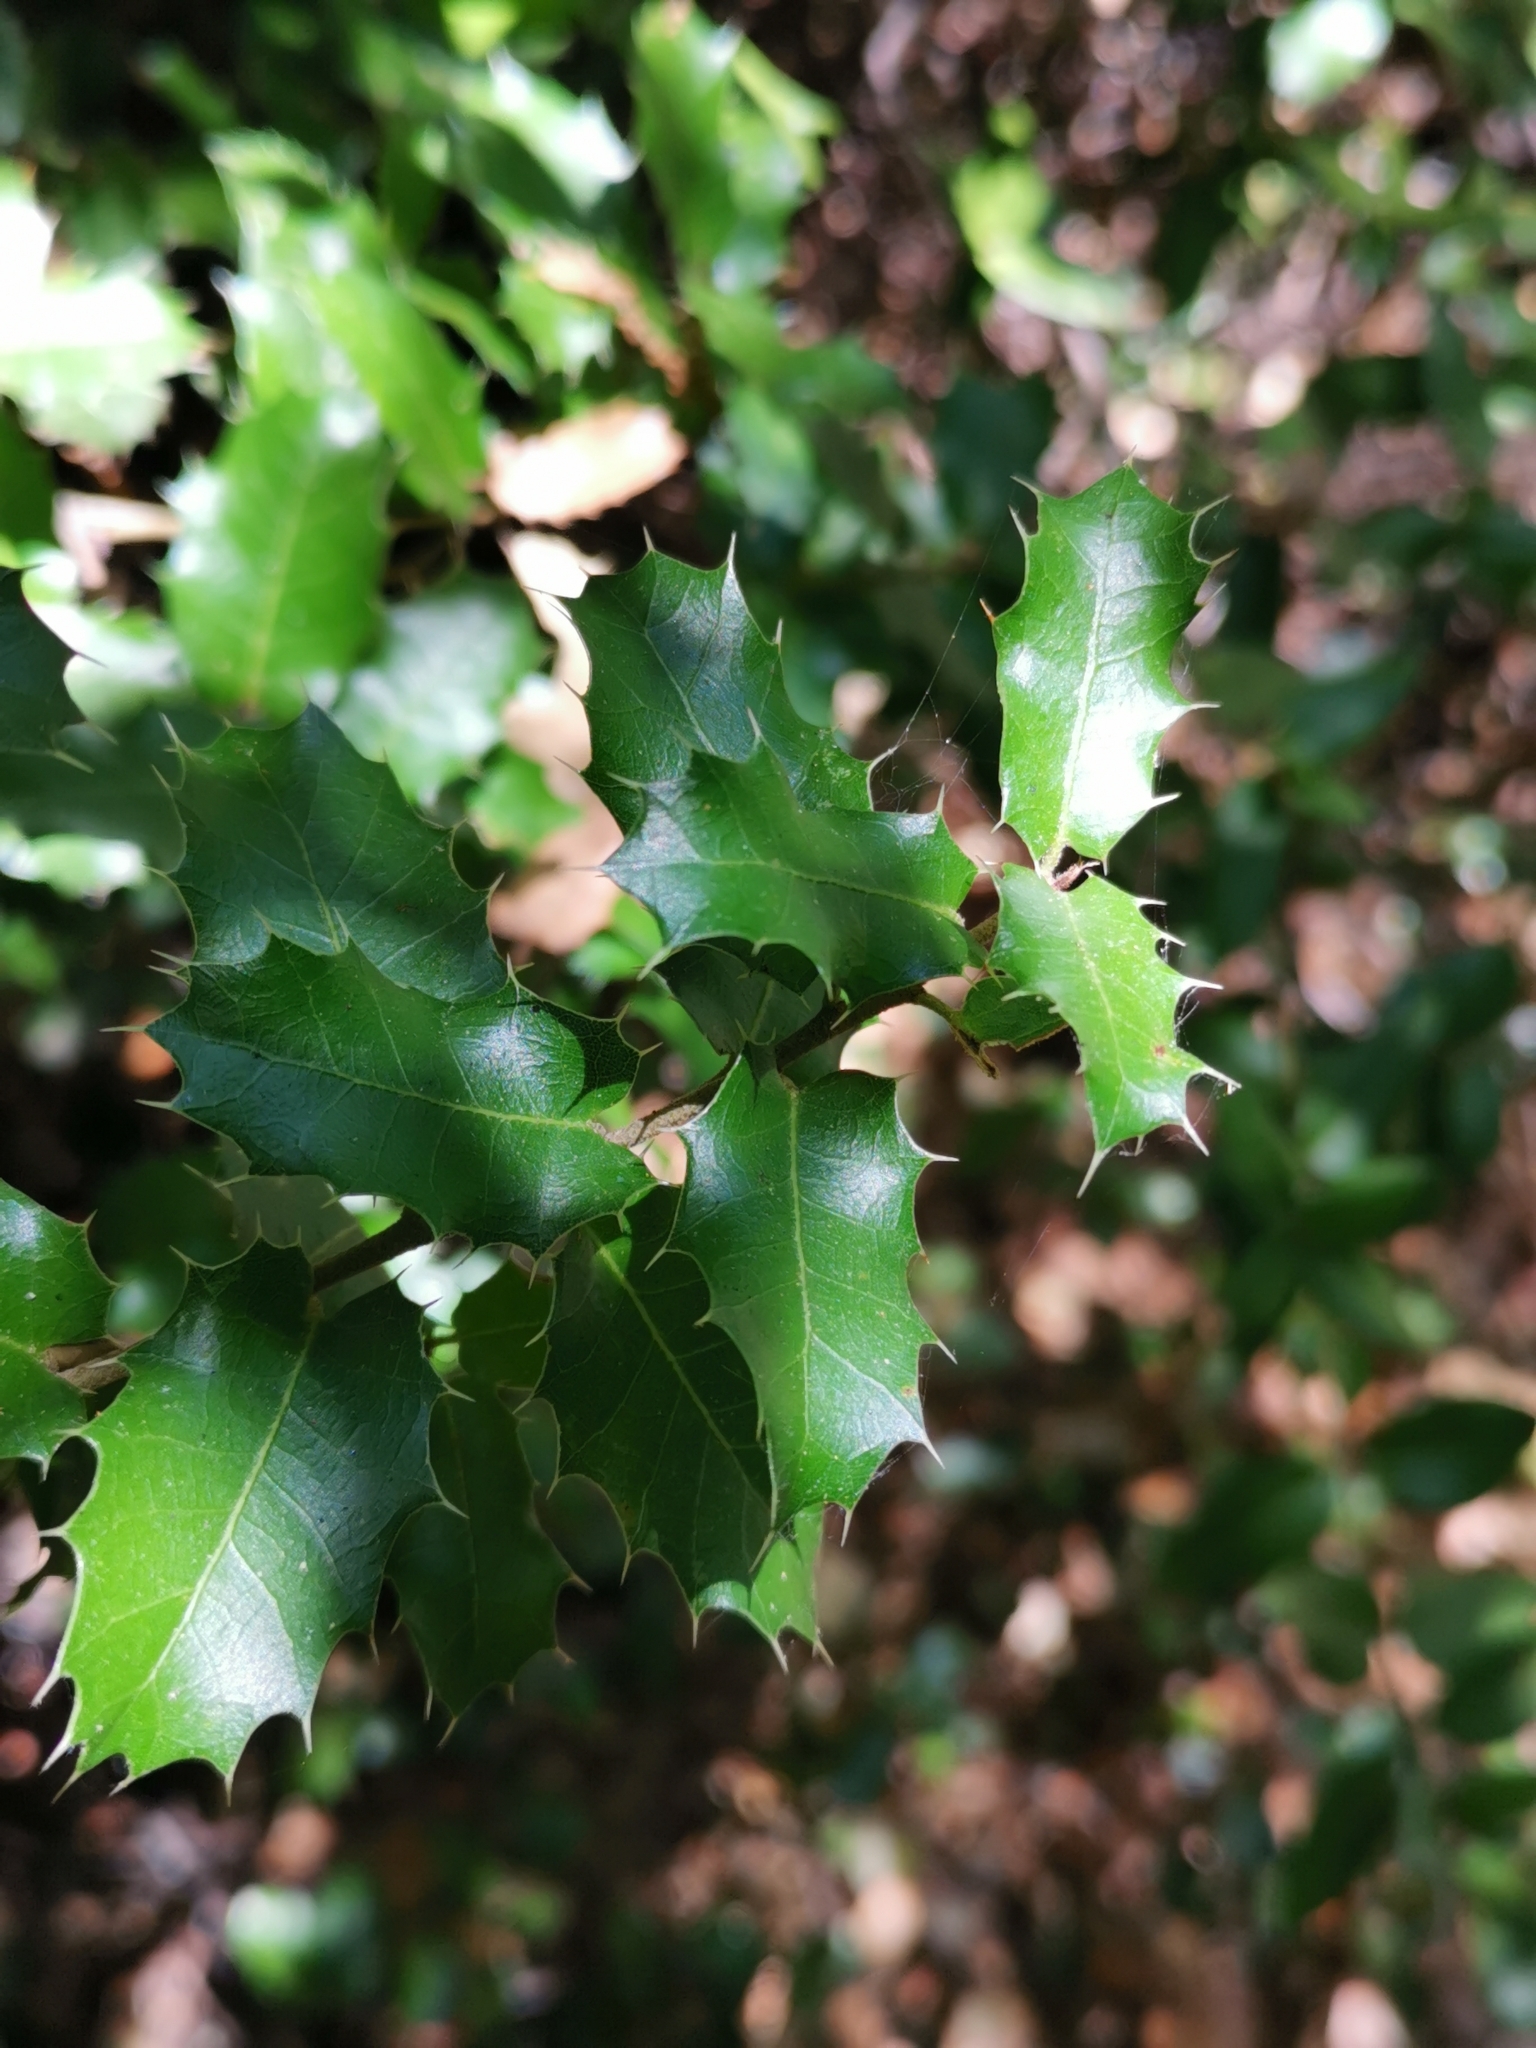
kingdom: Plantae
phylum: Tracheophyta
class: Magnoliopsida
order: Fagales
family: Fagaceae
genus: Quercus
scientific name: Quercus coccifera
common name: Kermes oak
